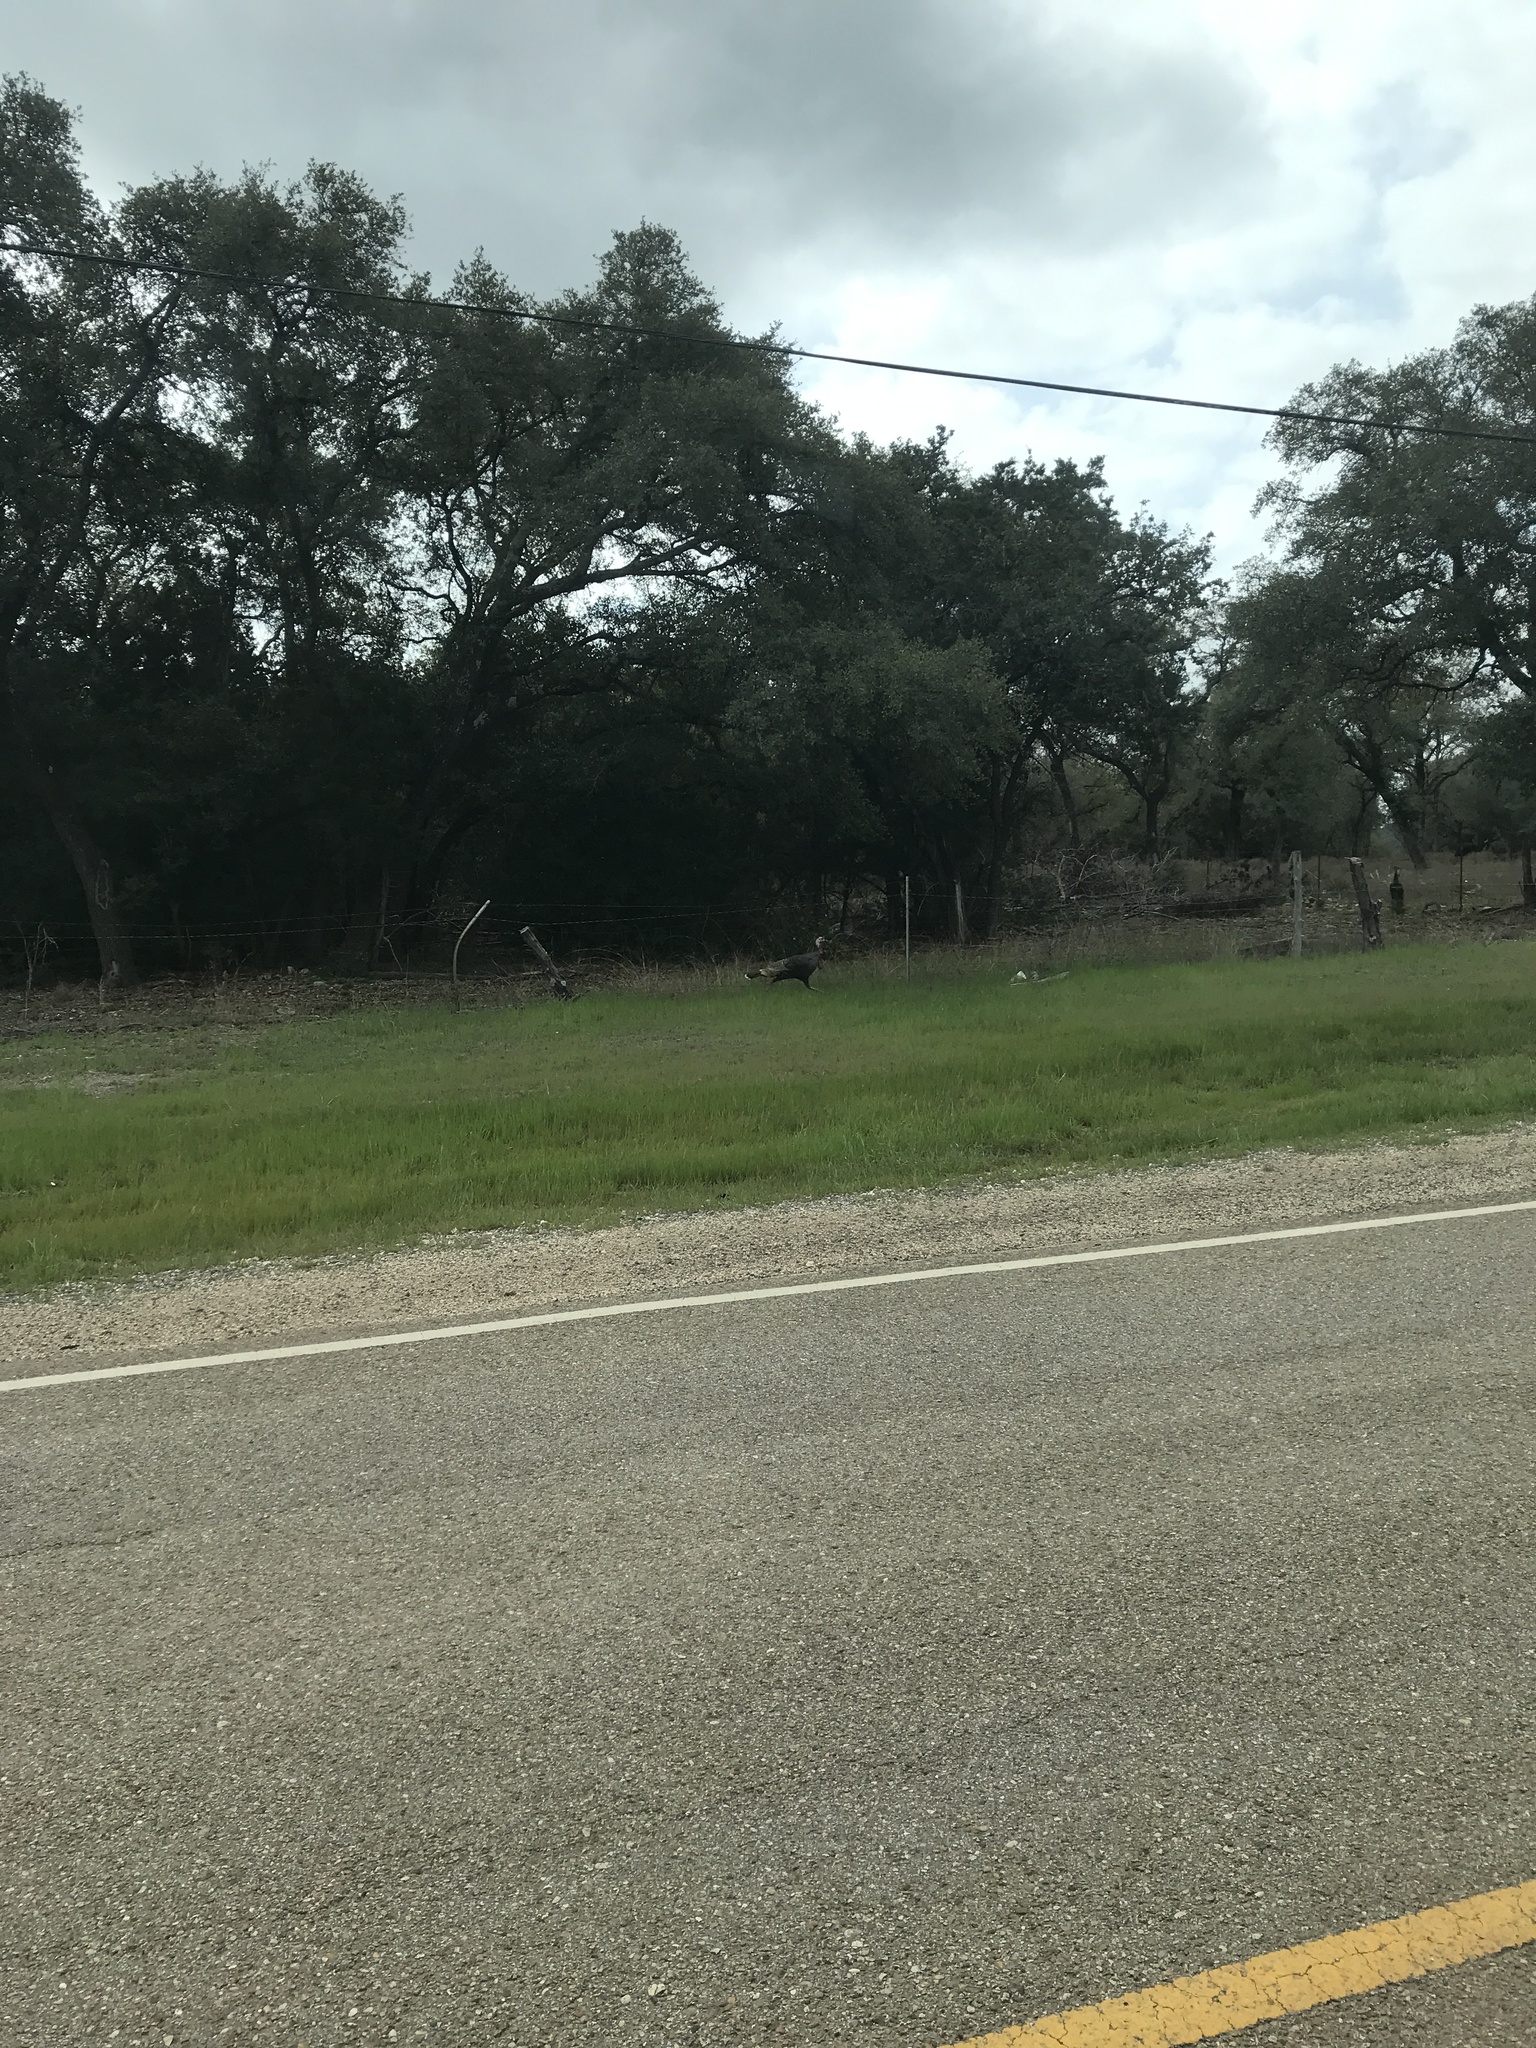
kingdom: Animalia
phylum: Chordata
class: Aves
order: Galliformes
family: Phasianidae
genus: Meleagris
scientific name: Meleagris gallopavo
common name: Wild turkey
